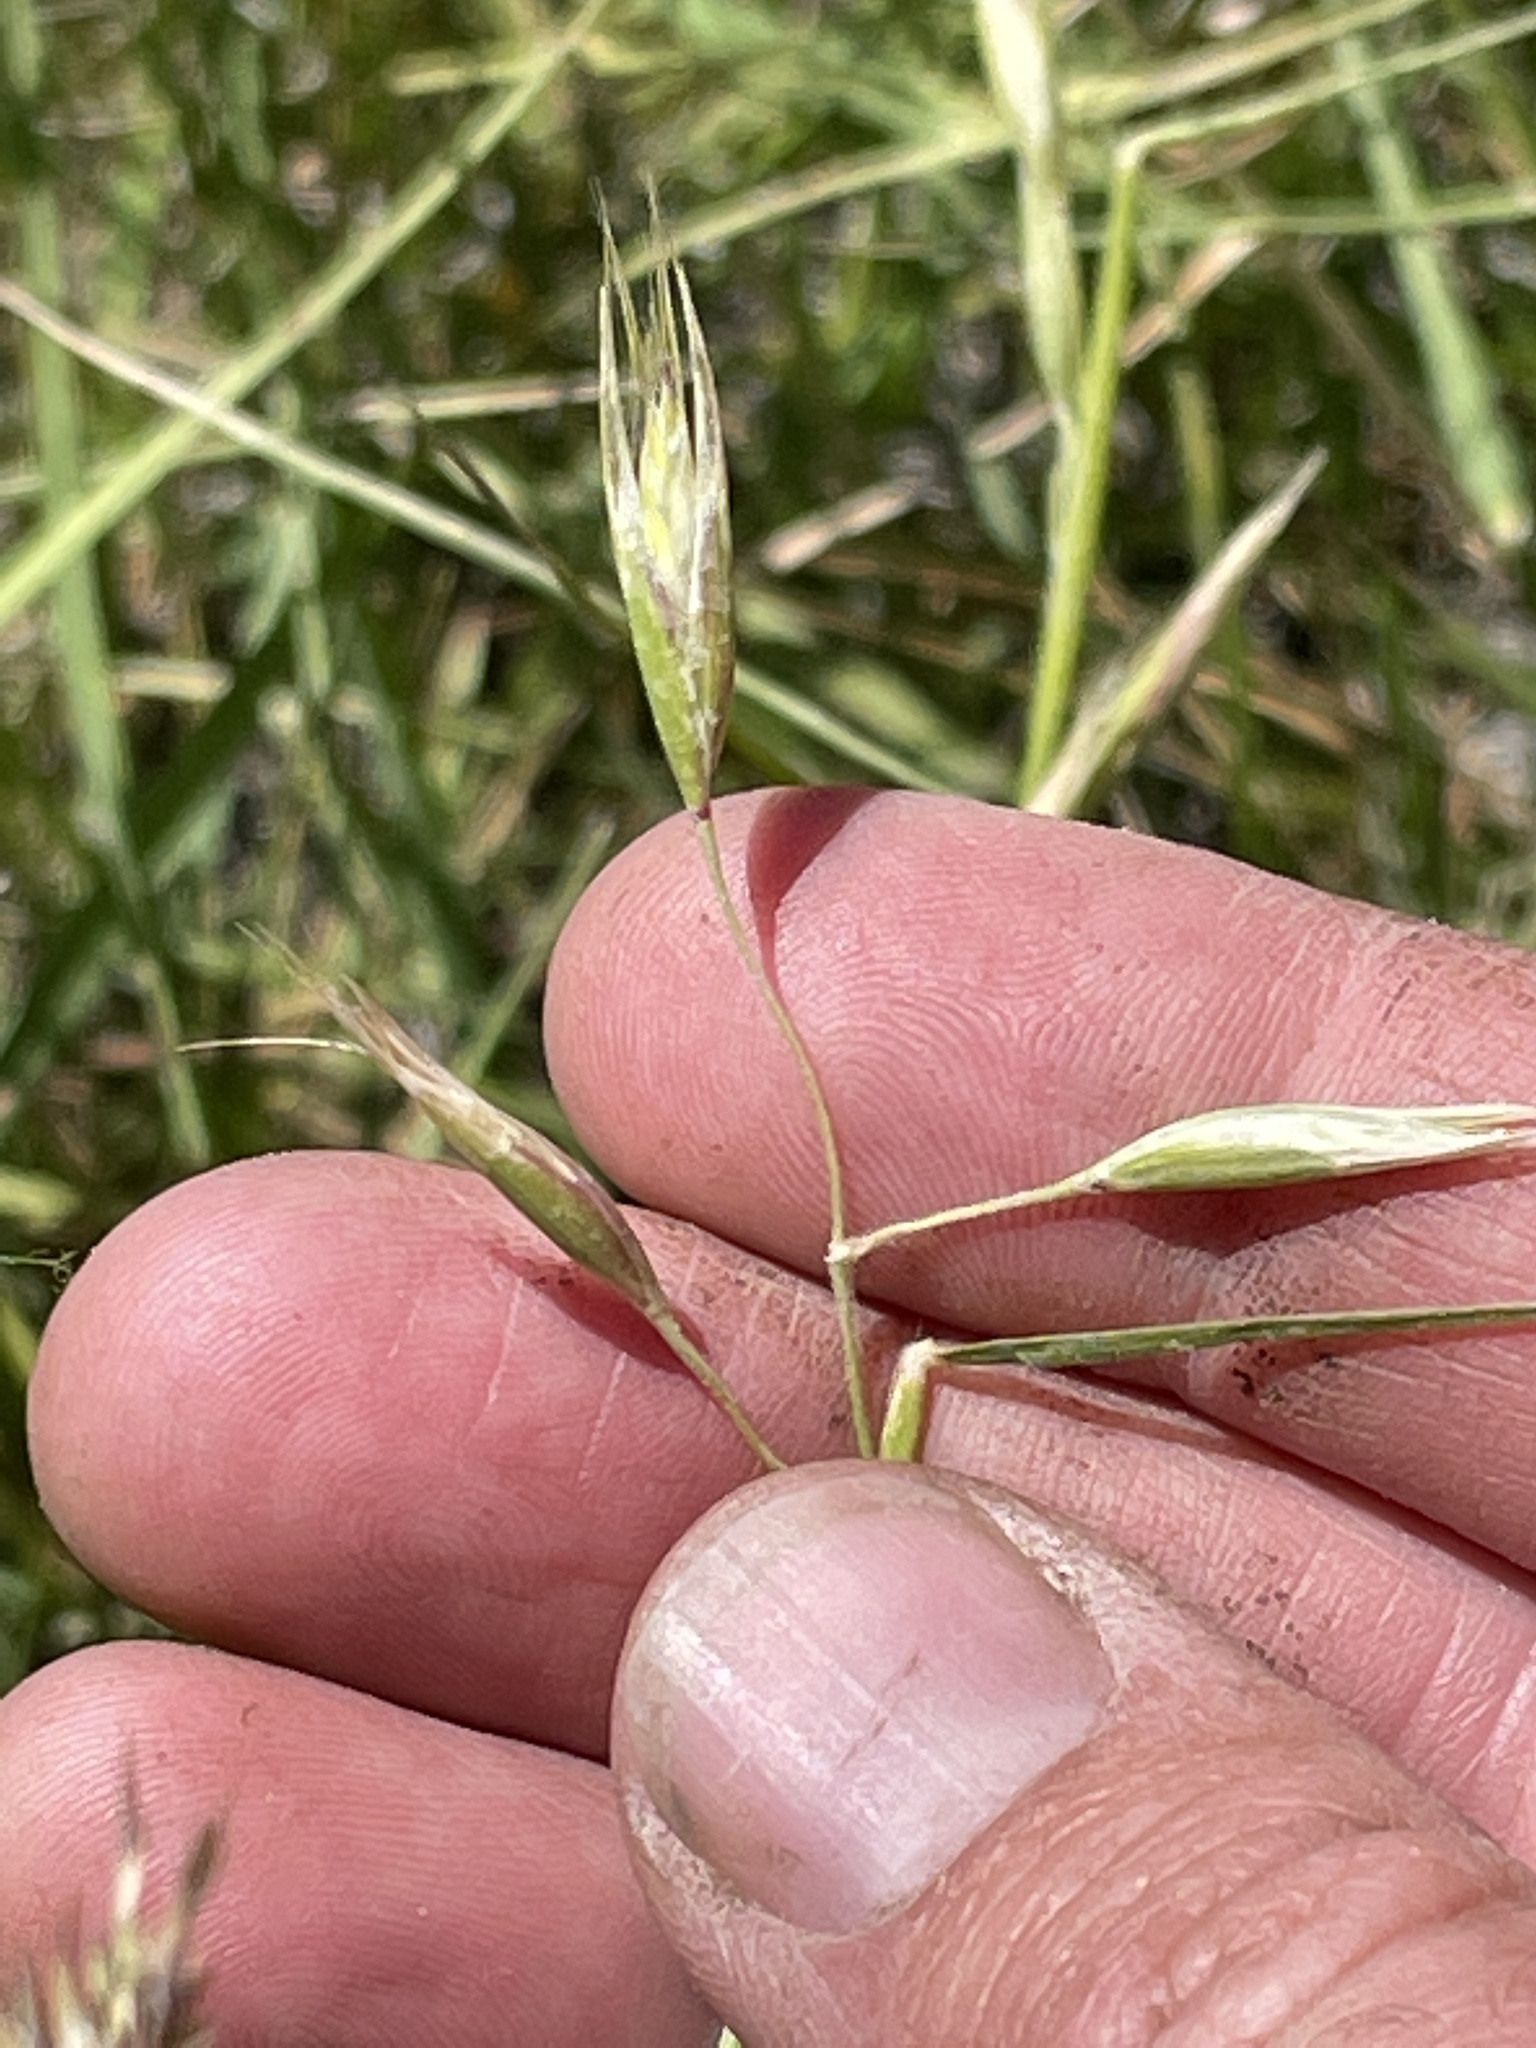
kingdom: Plantae
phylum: Tracheophyta
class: Liliopsida
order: Poales
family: Poaceae
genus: Danthonia
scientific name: Danthonia californica
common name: California oat grass
